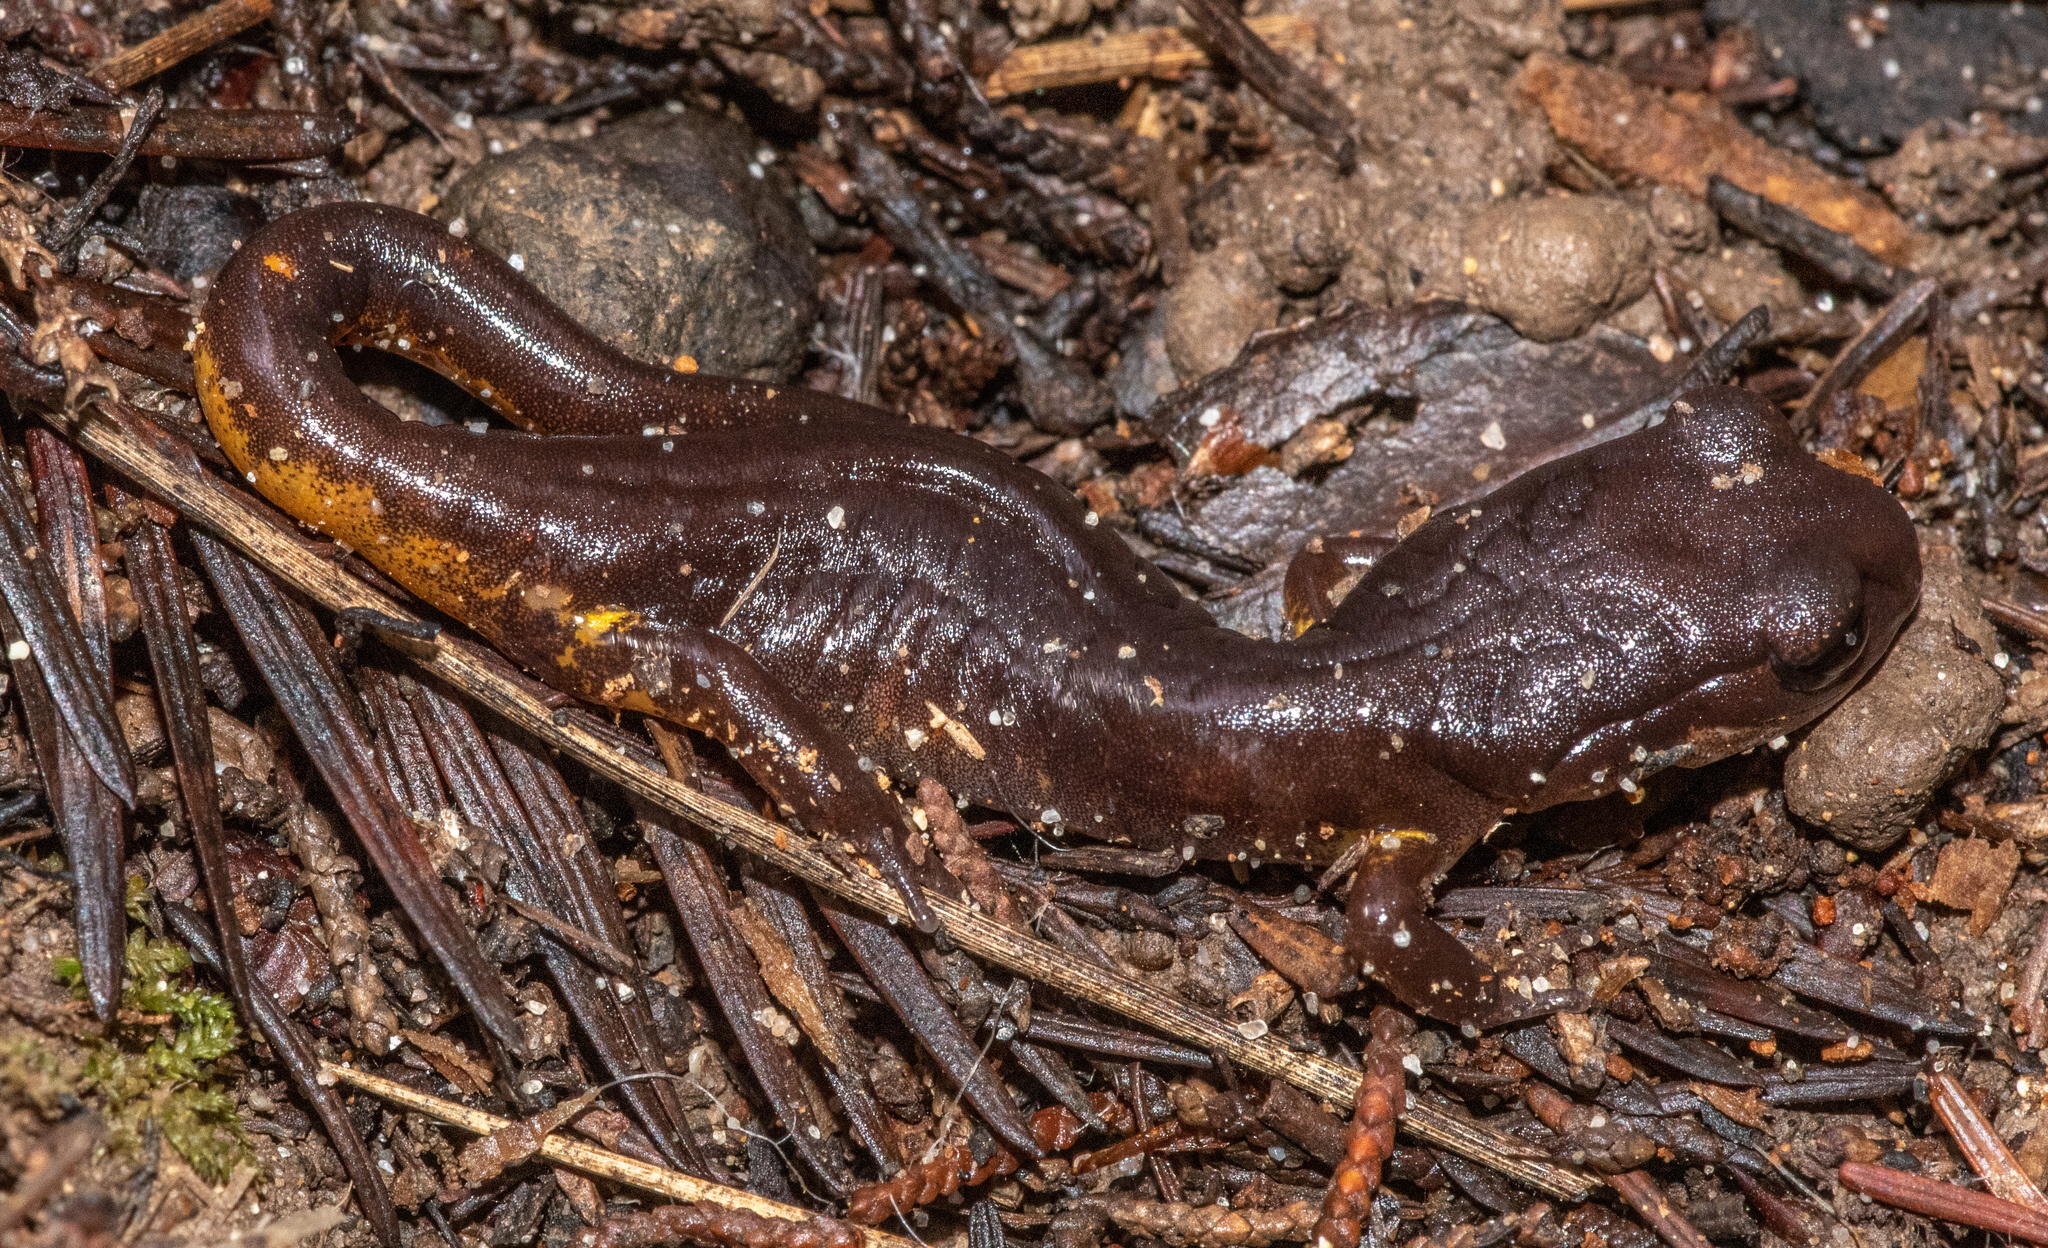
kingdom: Animalia
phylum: Chordata
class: Amphibia
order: Caudata
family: Plethodontidae
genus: Ensatina
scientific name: Ensatina eschscholtzii
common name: Ensatina
